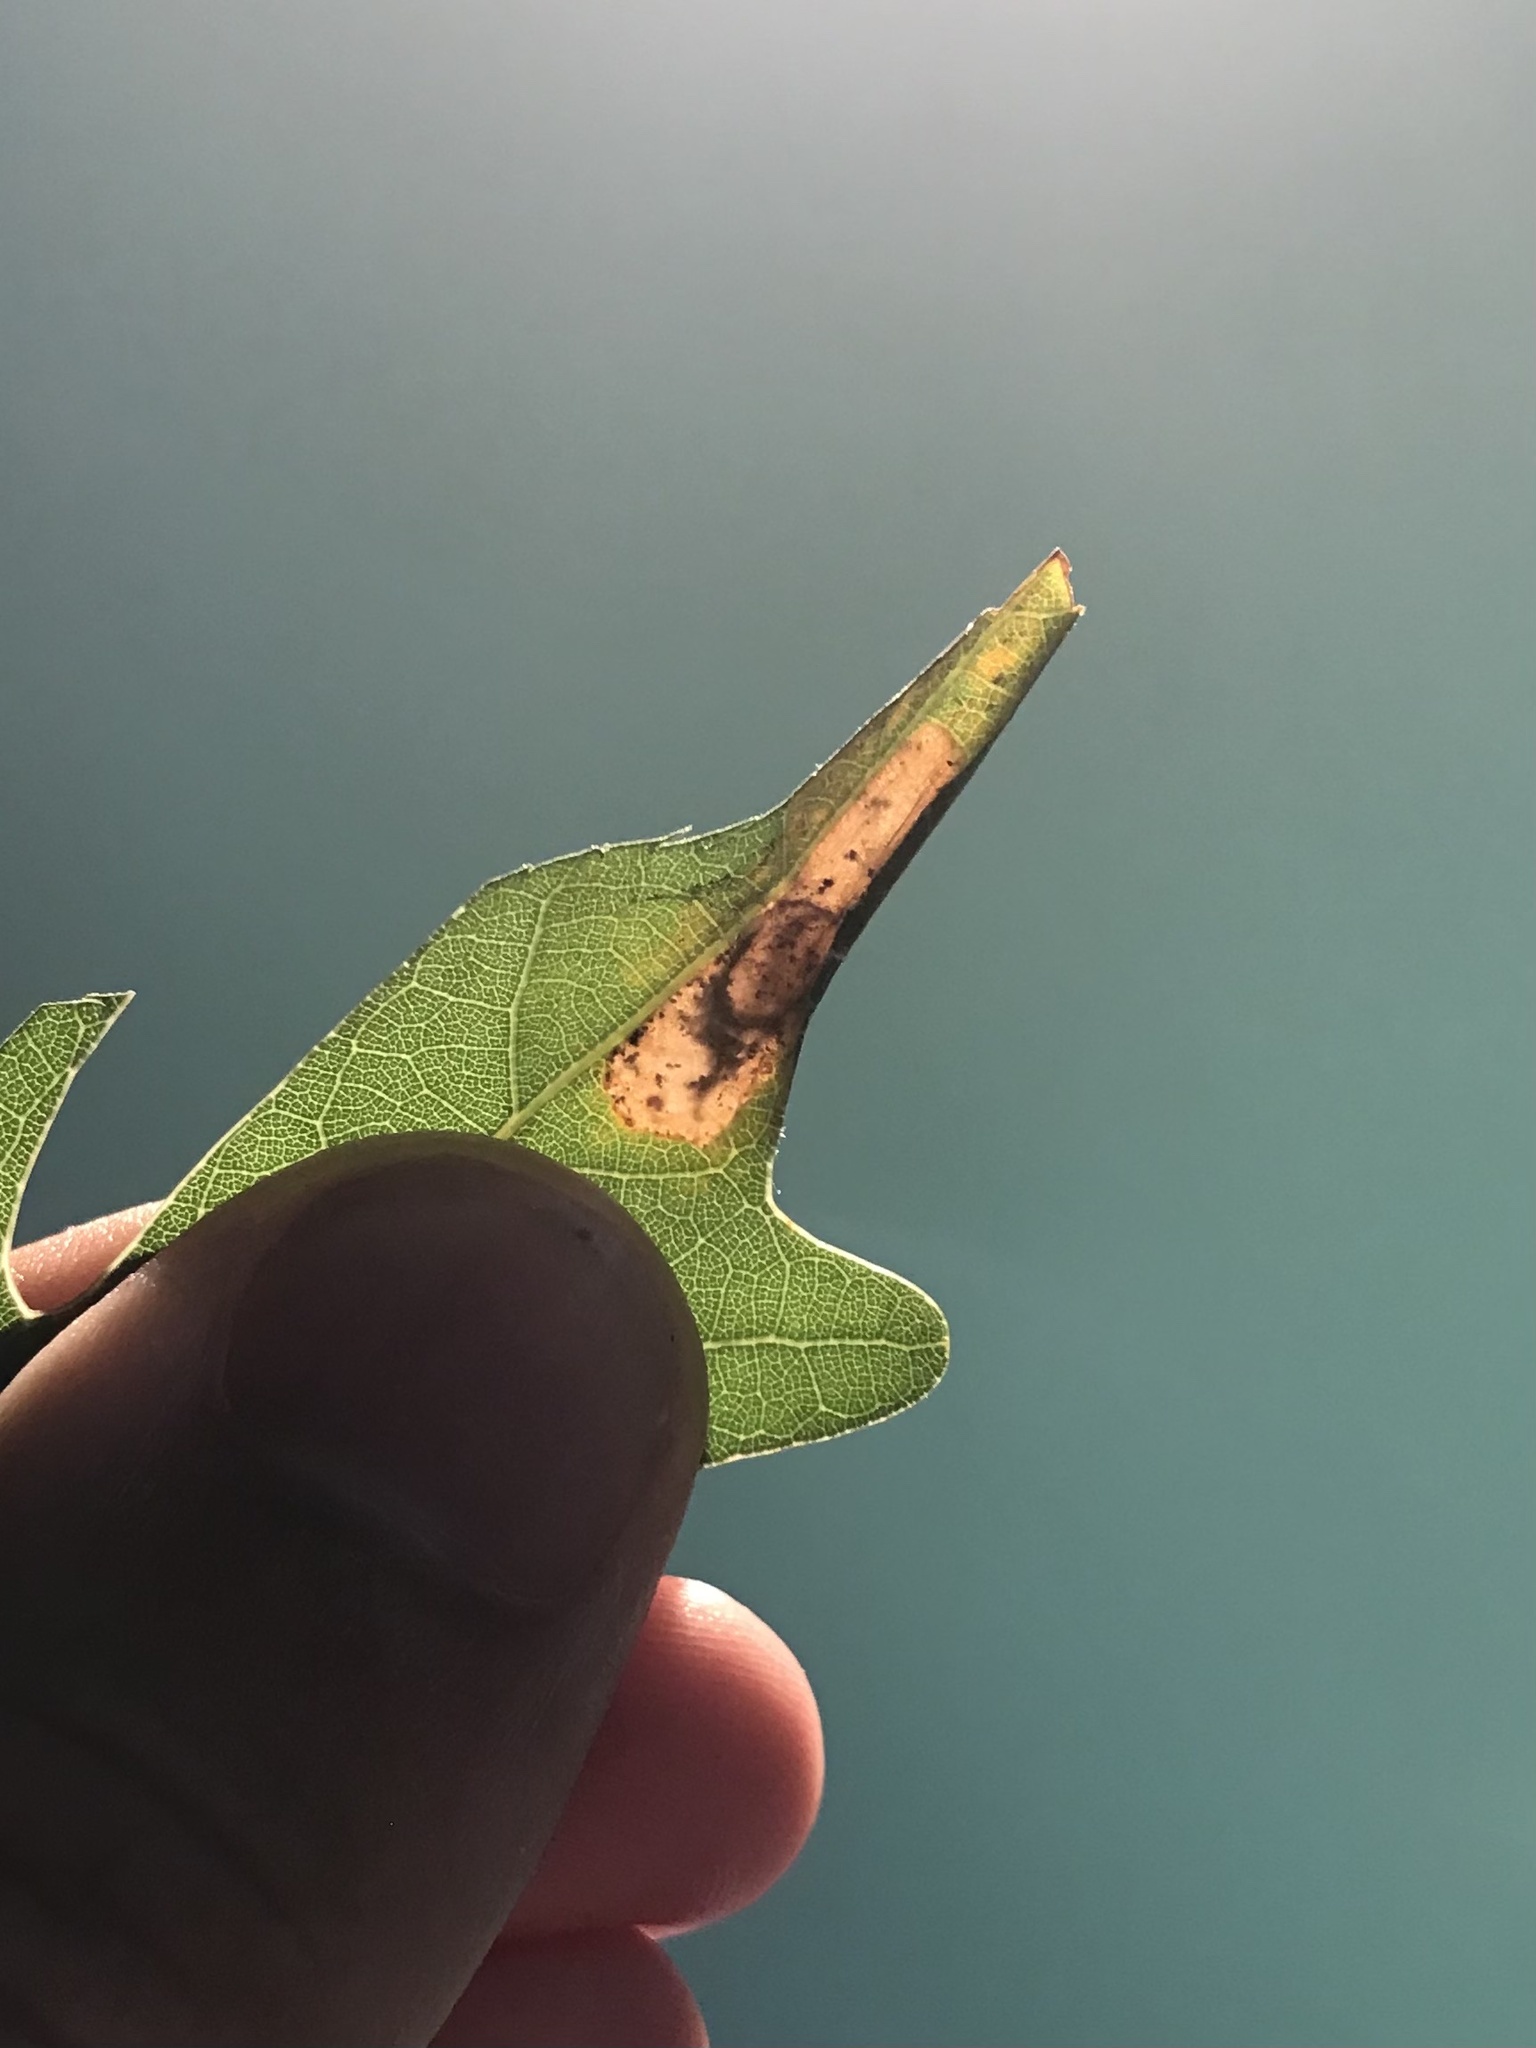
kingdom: Animalia
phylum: Arthropoda
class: Insecta
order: Lepidoptera
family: Gracillariidae
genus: Phyllonorycter
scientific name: Phyllonorycter basistrigella
